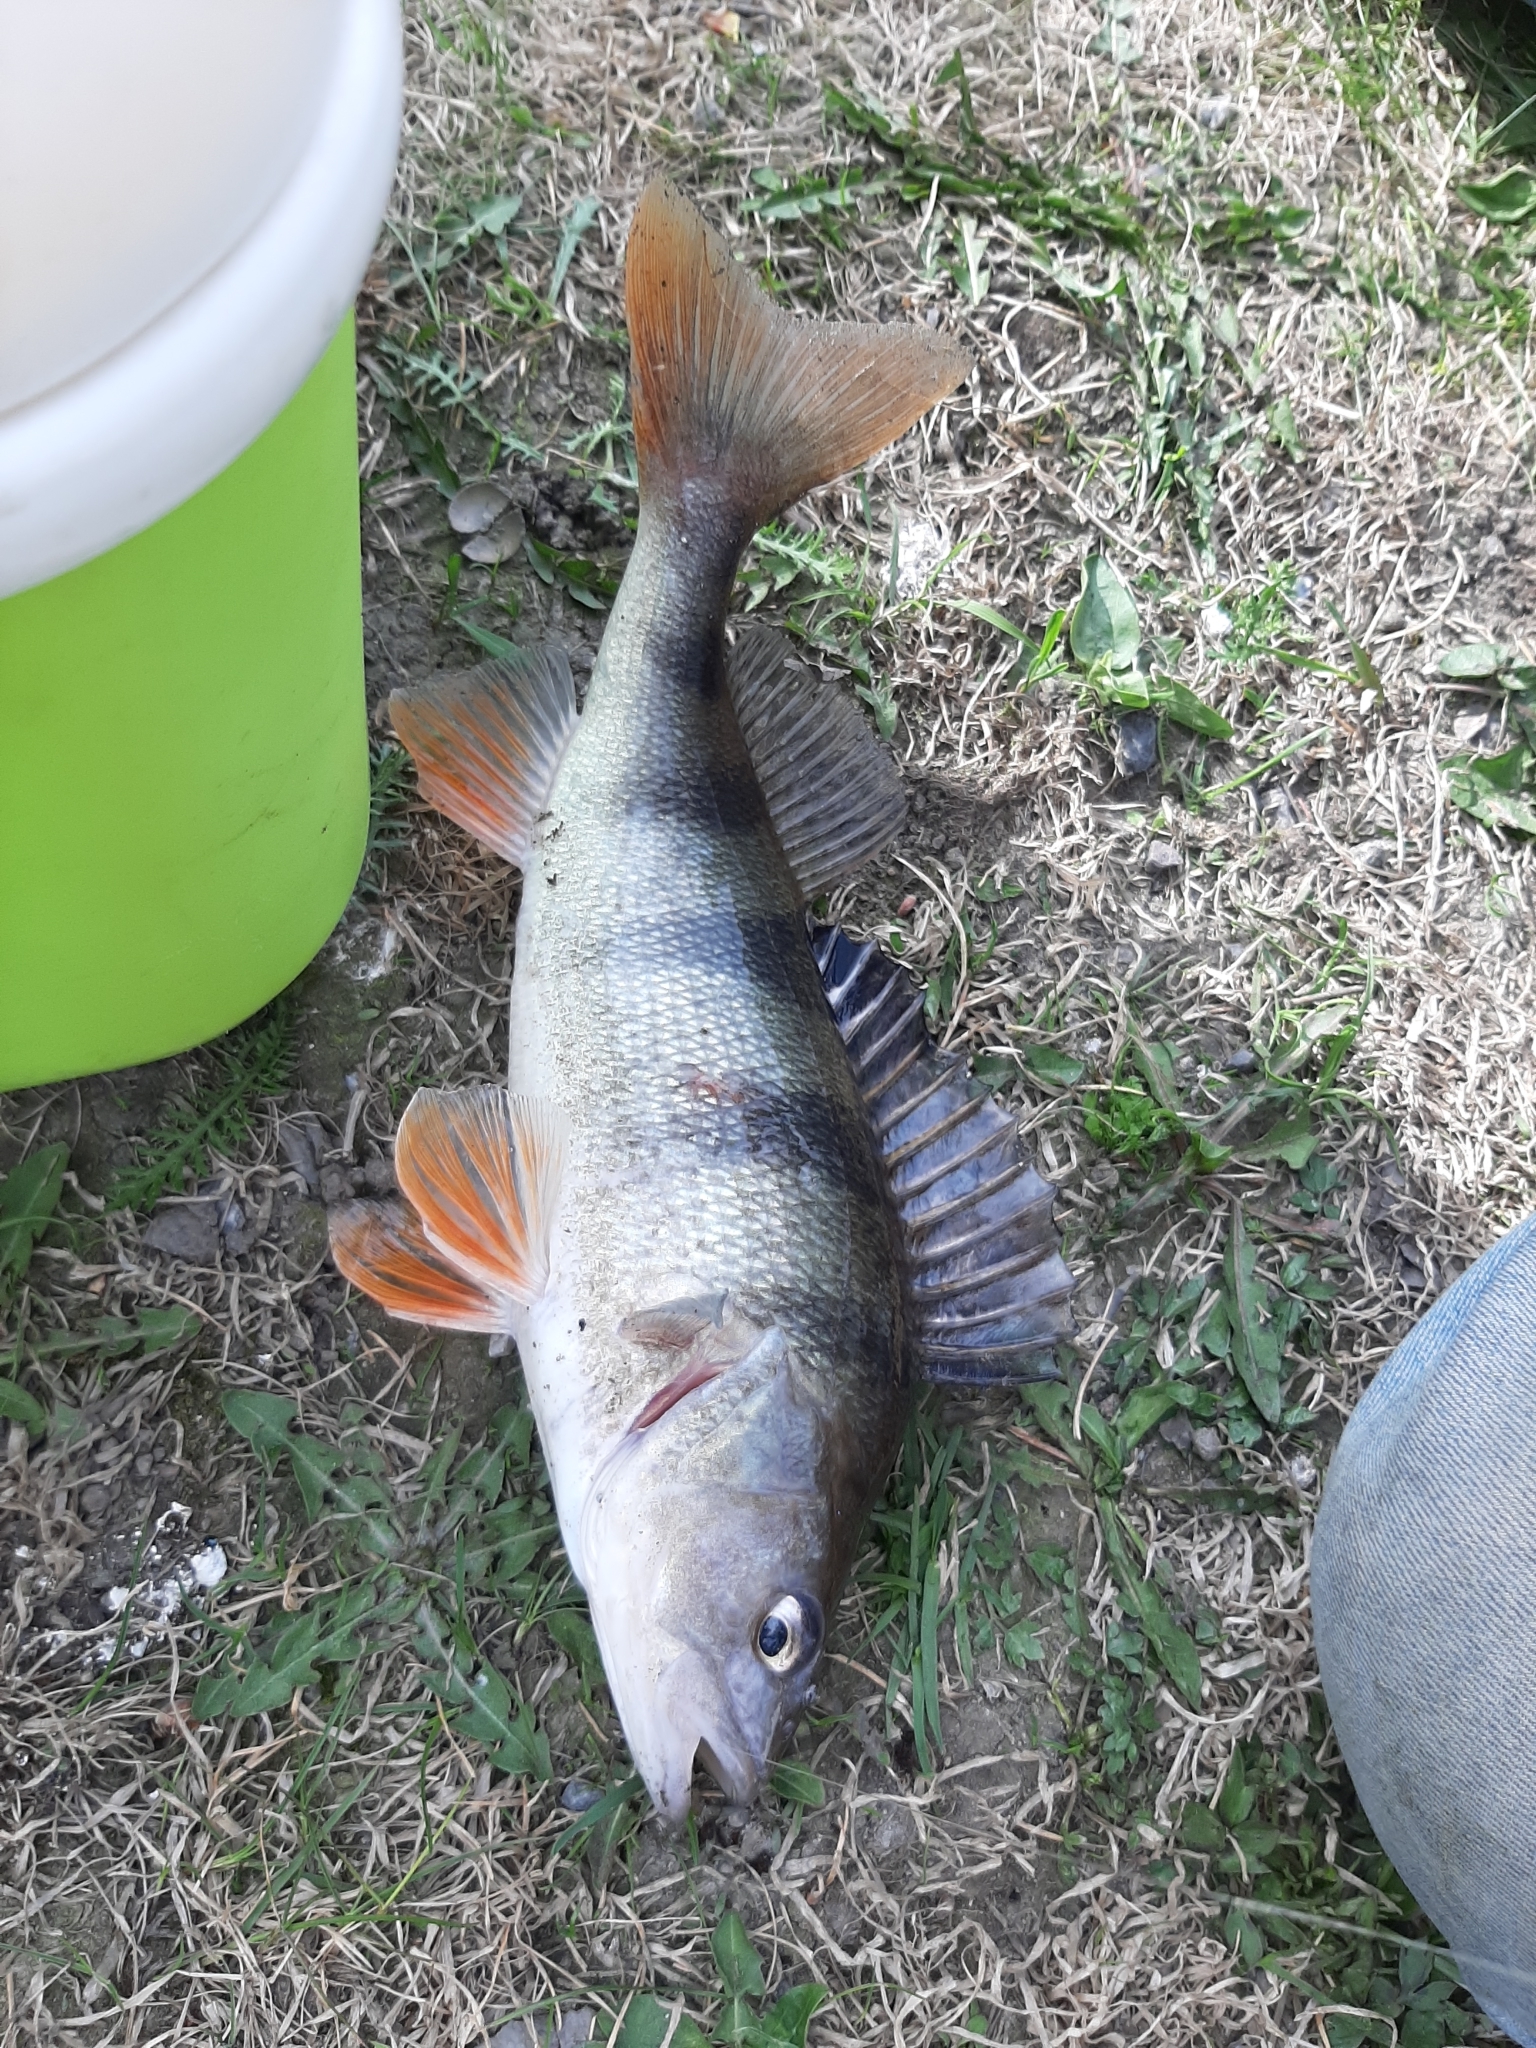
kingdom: Animalia
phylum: Chordata
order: Perciformes
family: Percidae
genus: Perca
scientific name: Perca fluviatilis
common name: Perch
